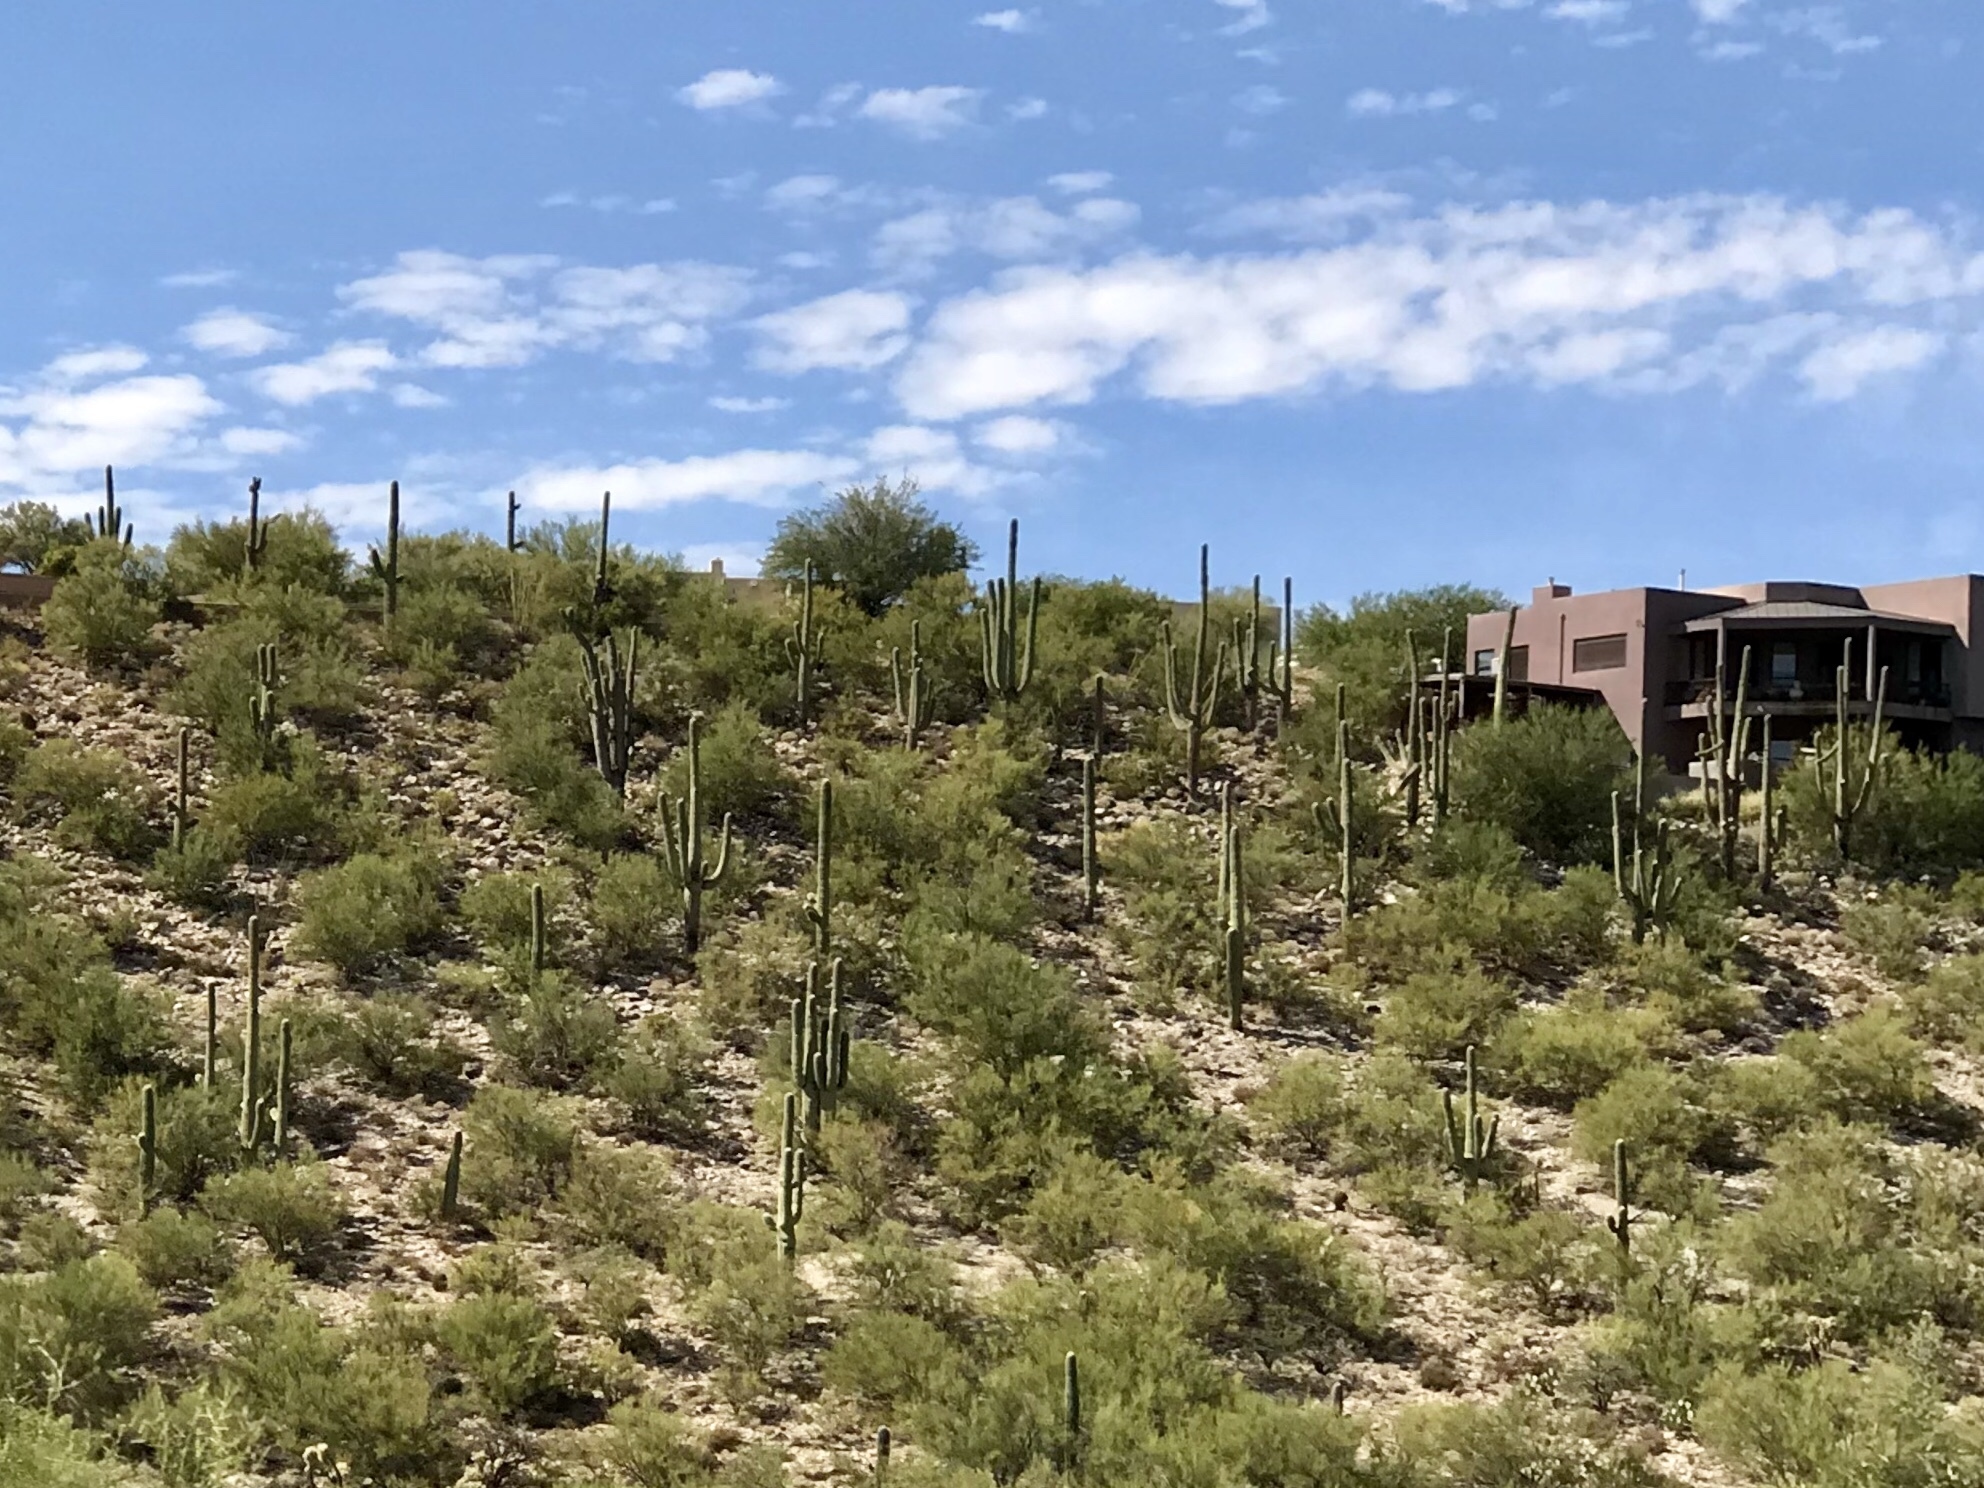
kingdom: Plantae
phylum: Tracheophyta
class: Magnoliopsida
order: Caryophyllales
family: Cactaceae
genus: Carnegiea
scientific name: Carnegiea gigantea
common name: Saguaro
